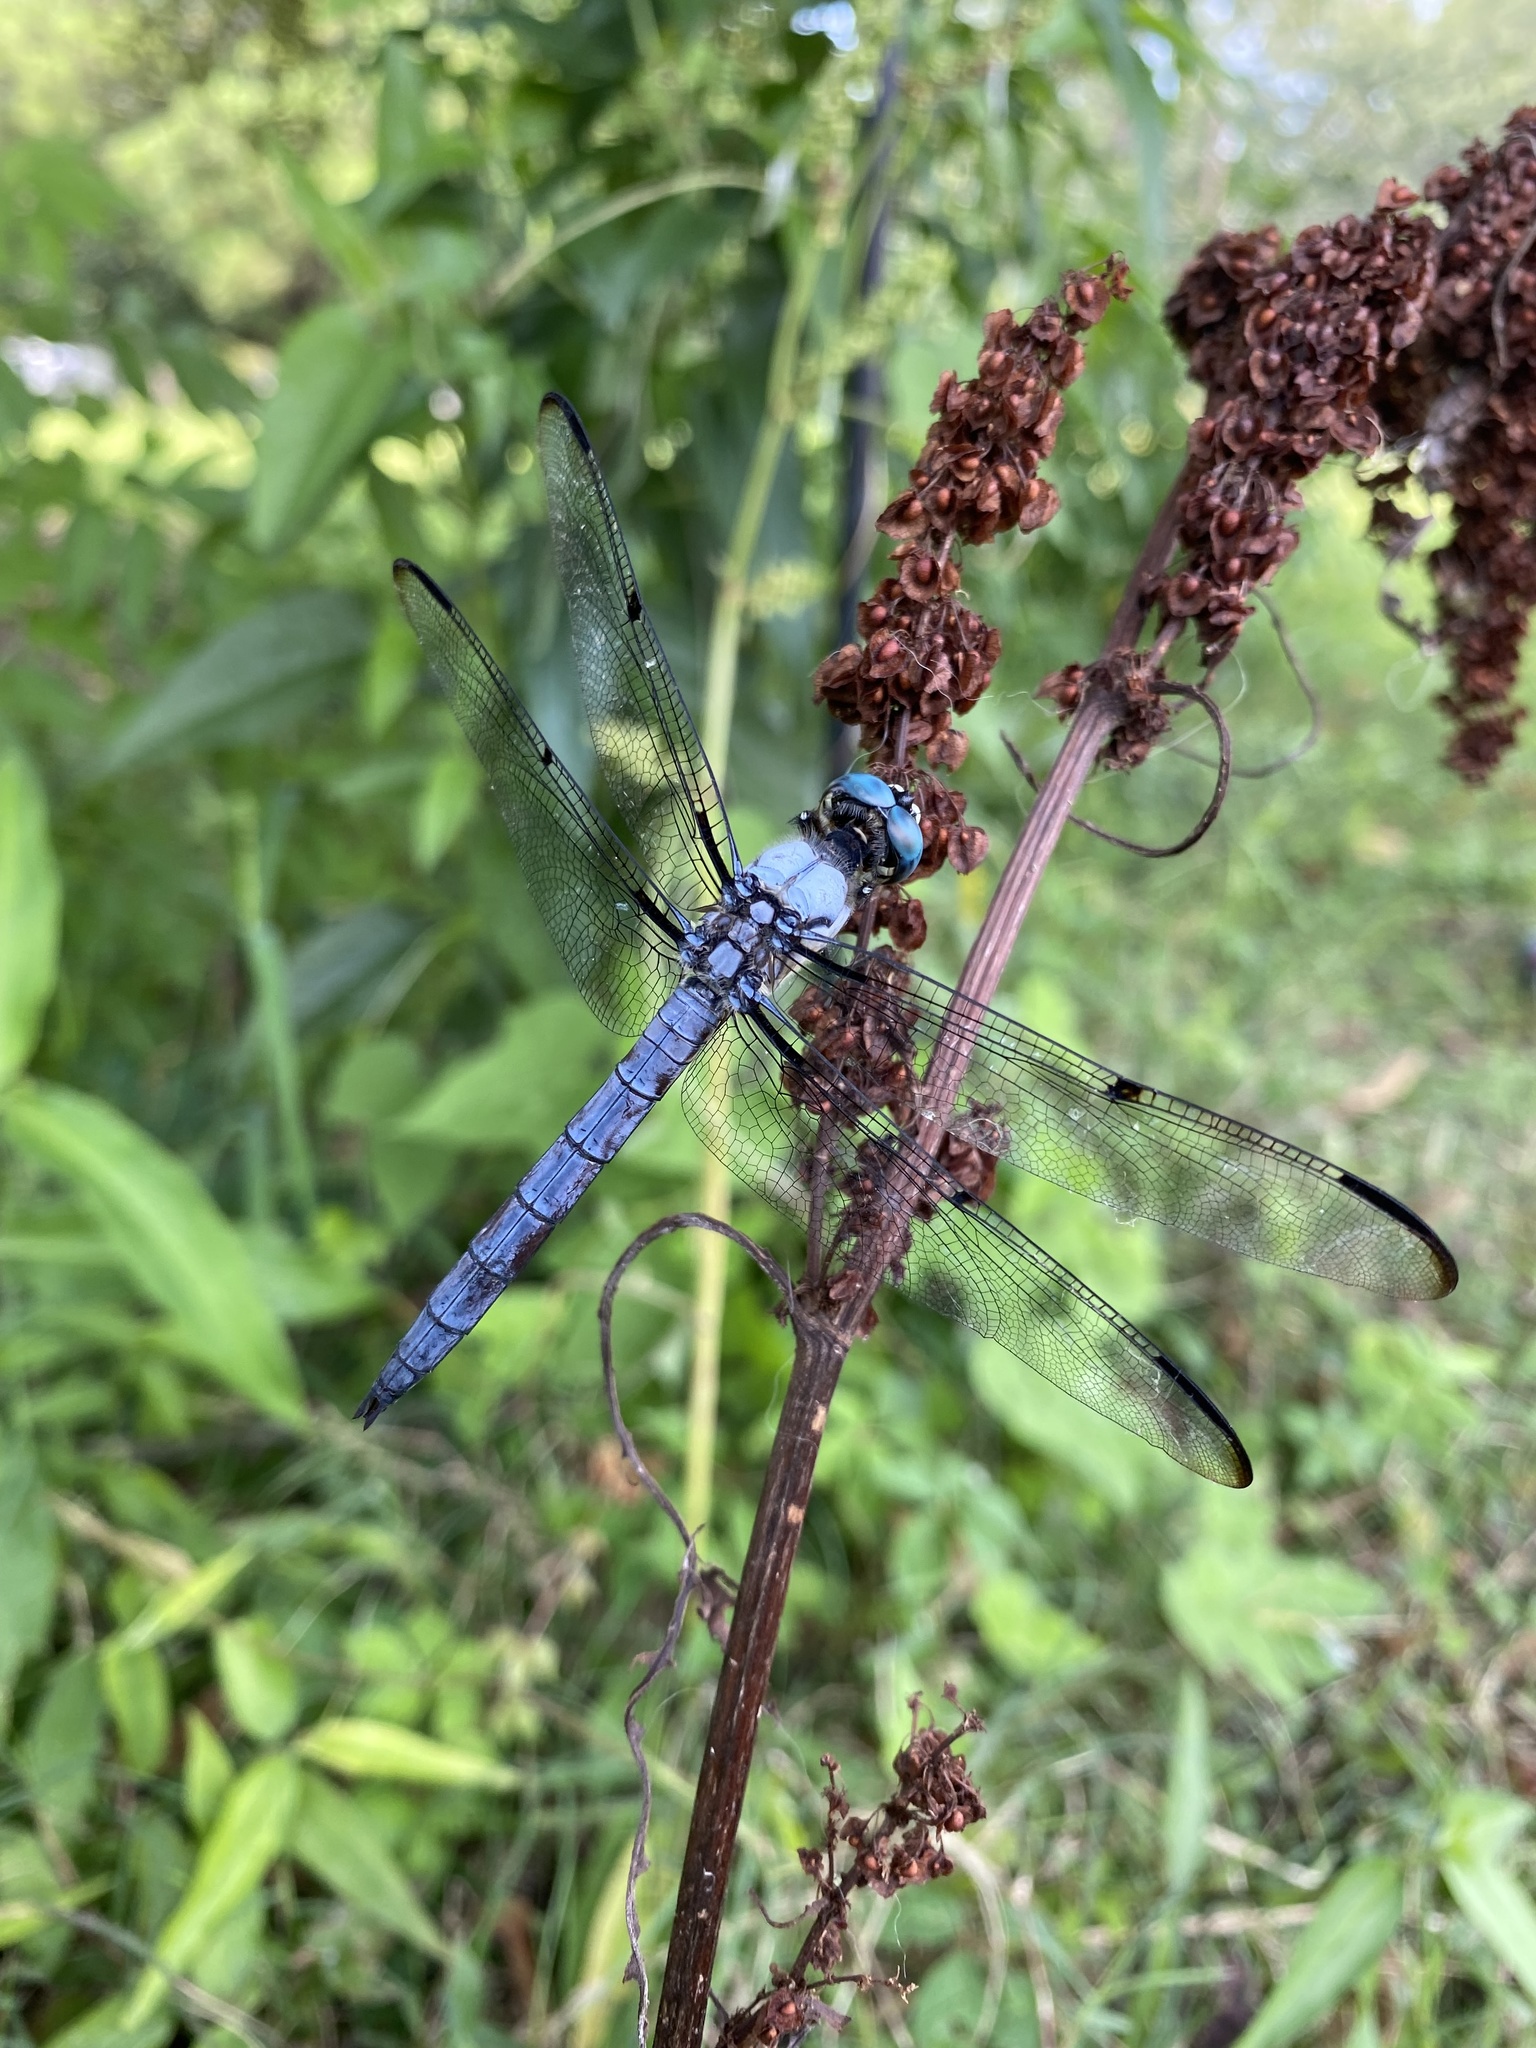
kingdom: Animalia
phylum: Arthropoda
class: Insecta
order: Odonata
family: Libellulidae
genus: Libellula
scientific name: Libellula vibrans
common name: Great blue skimmer
